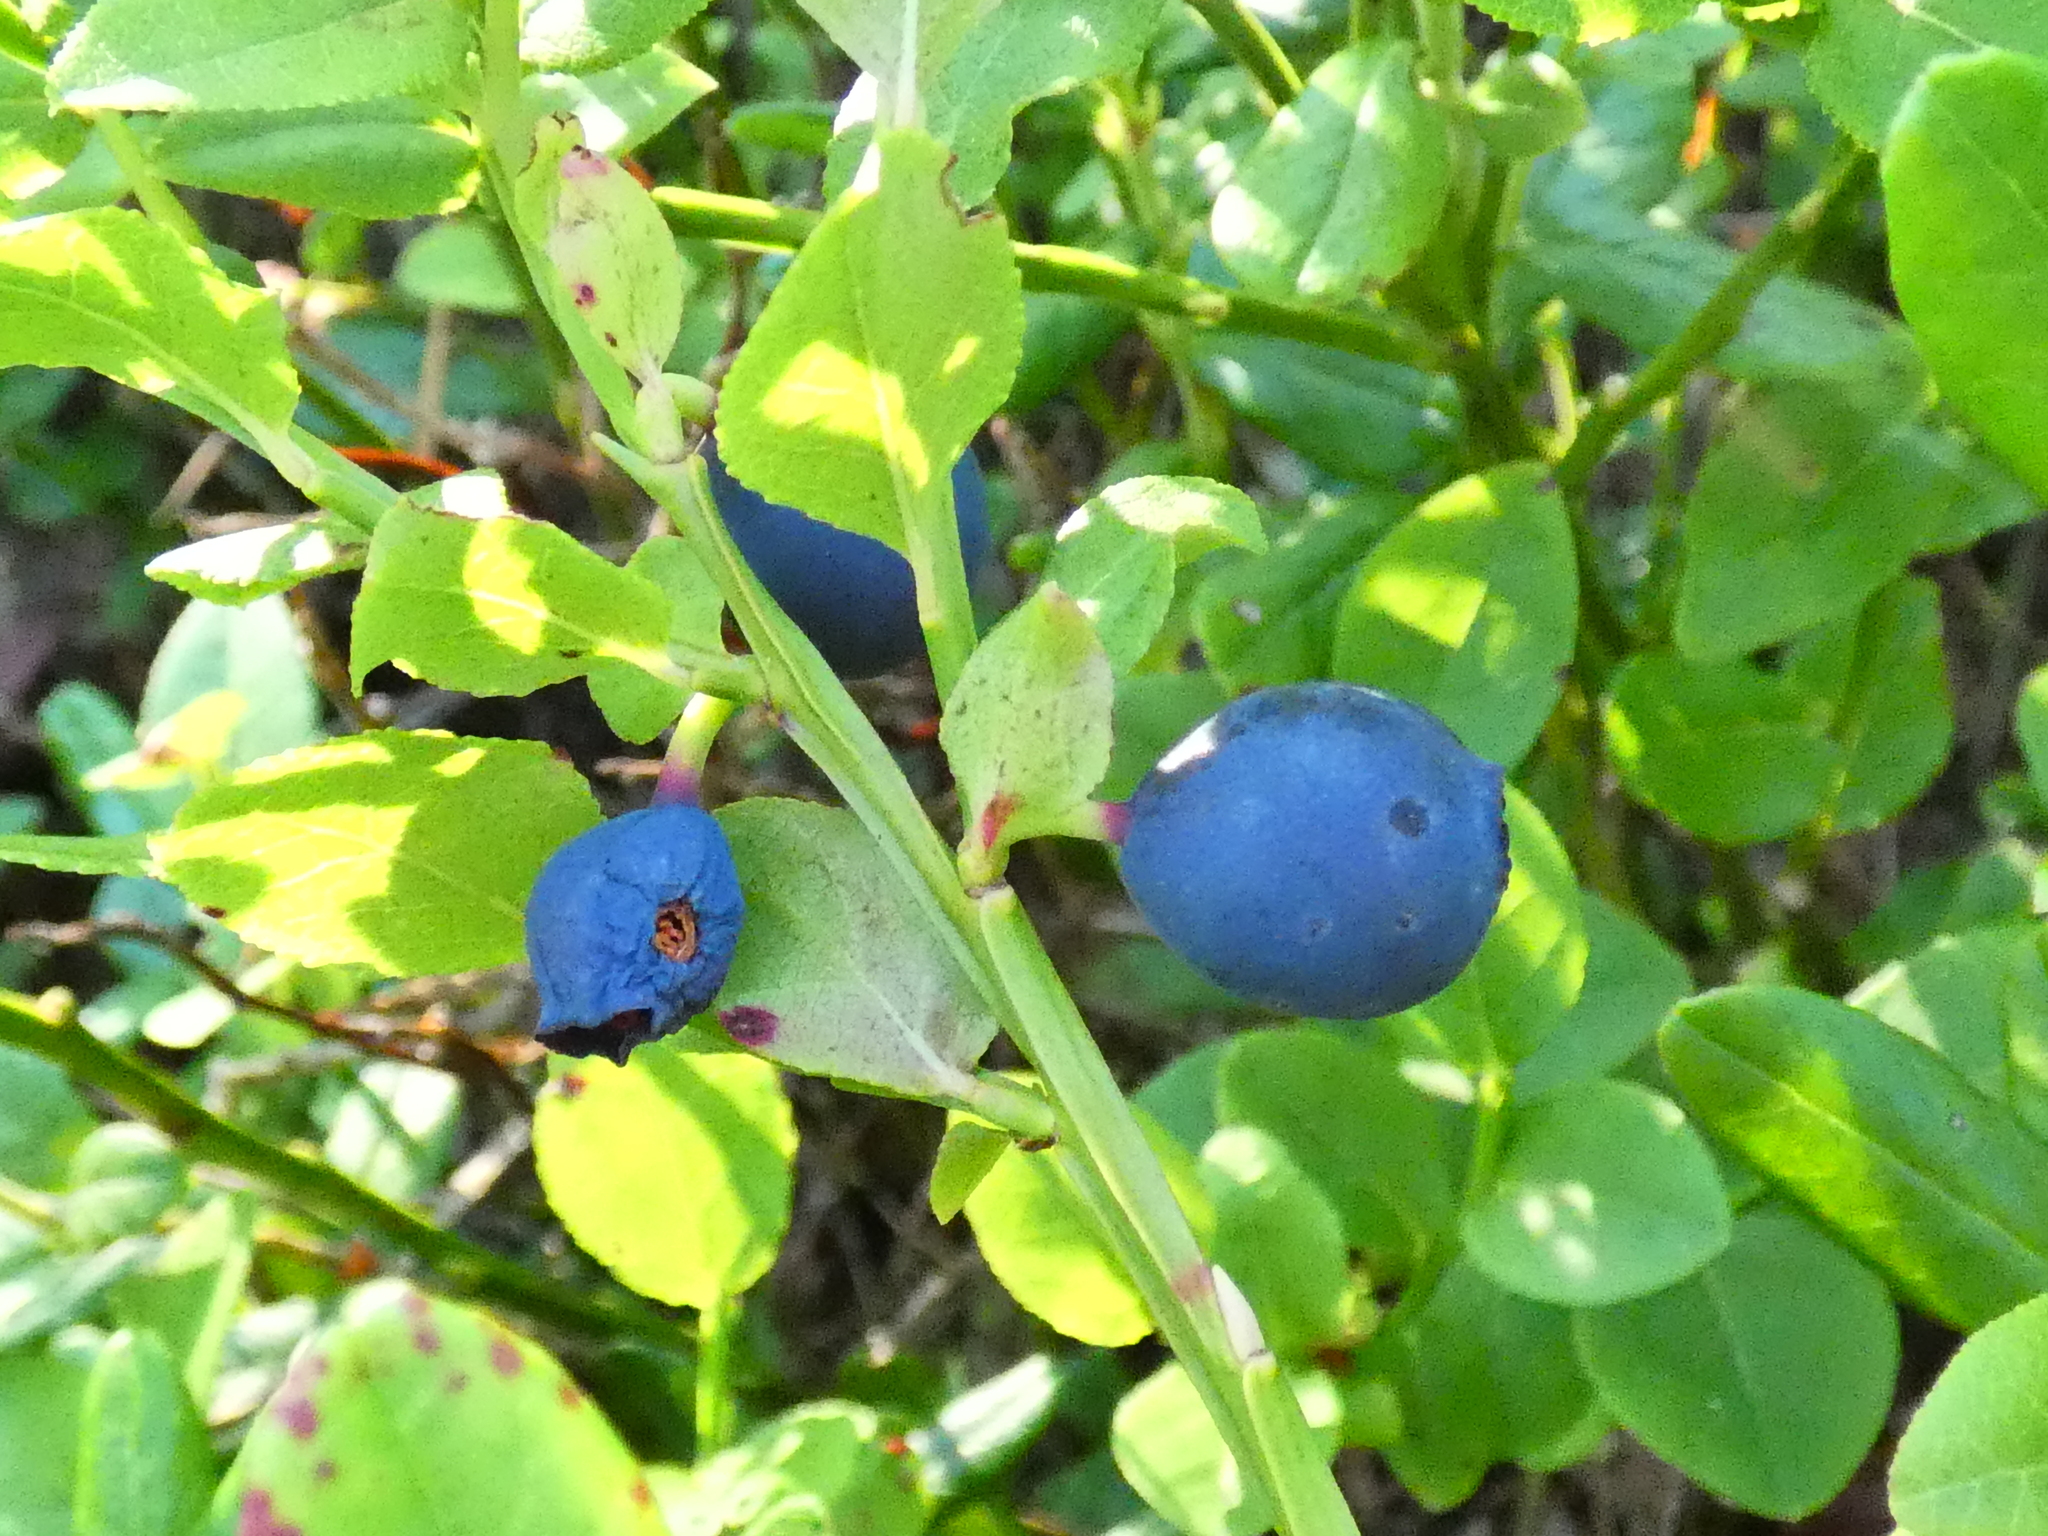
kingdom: Plantae
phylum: Tracheophyta
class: Magnoliopsida
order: Ericales
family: Ericaceae
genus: Vaccinium
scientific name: Vaccinium myrtillus
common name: Bilberry
